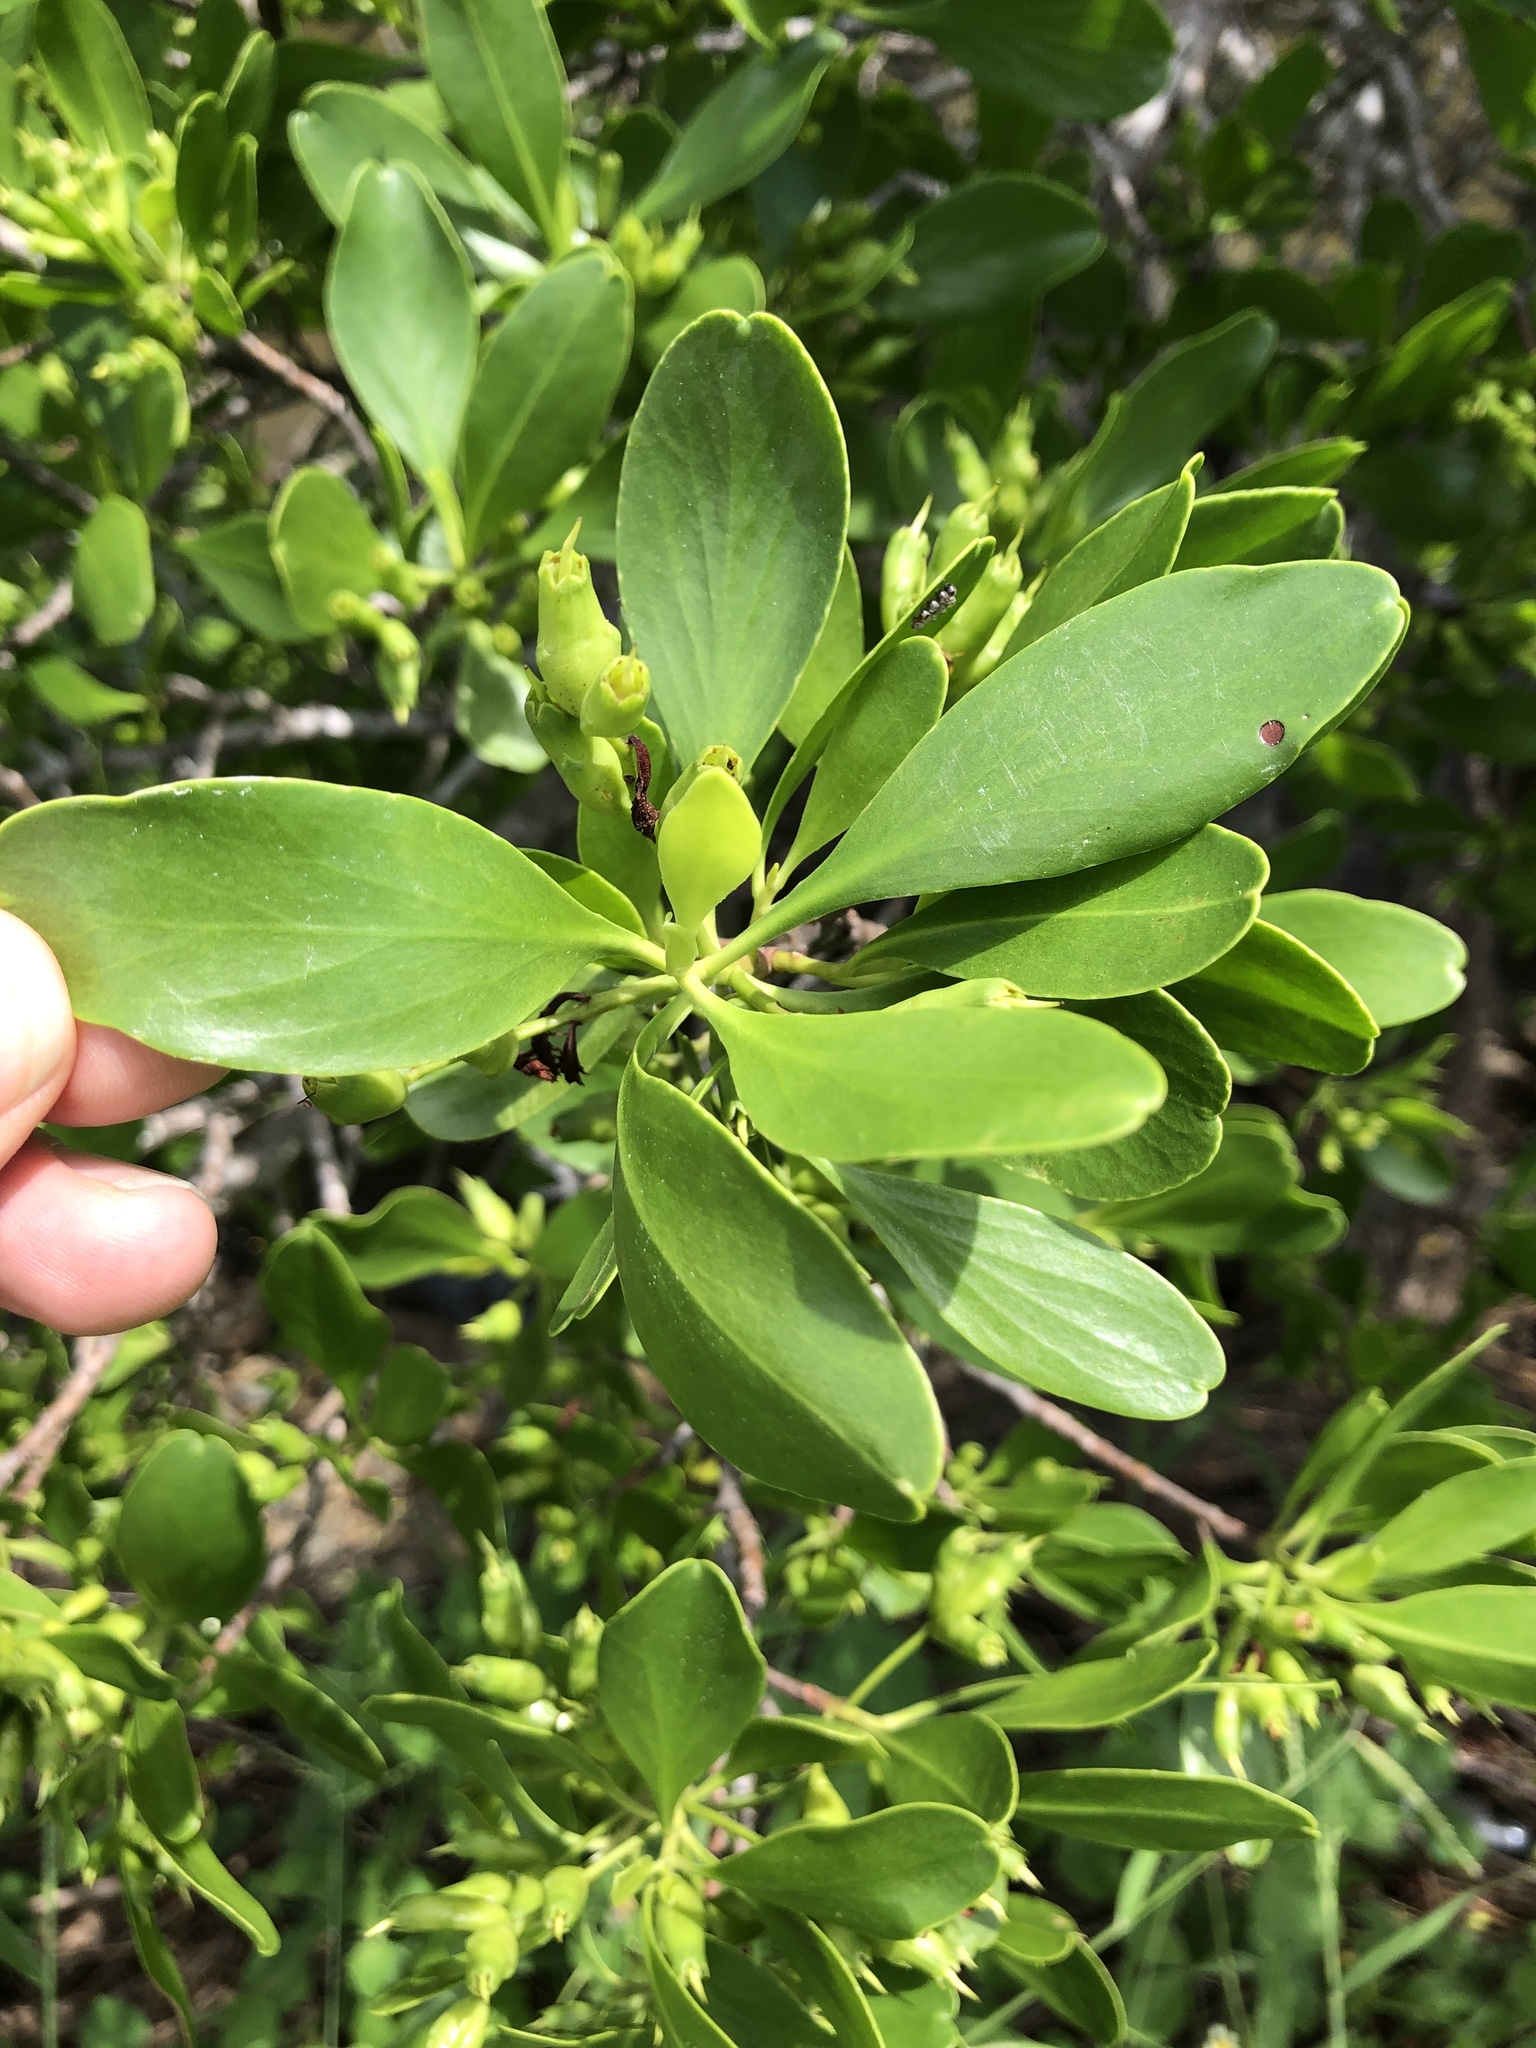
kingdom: Plantae
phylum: Tracheophyta
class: Magnoliopsida
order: Myrtales
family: Combretaceae
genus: Lumnitzera
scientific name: Lumnitzera racemosa
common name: White-flowered black mangrove
